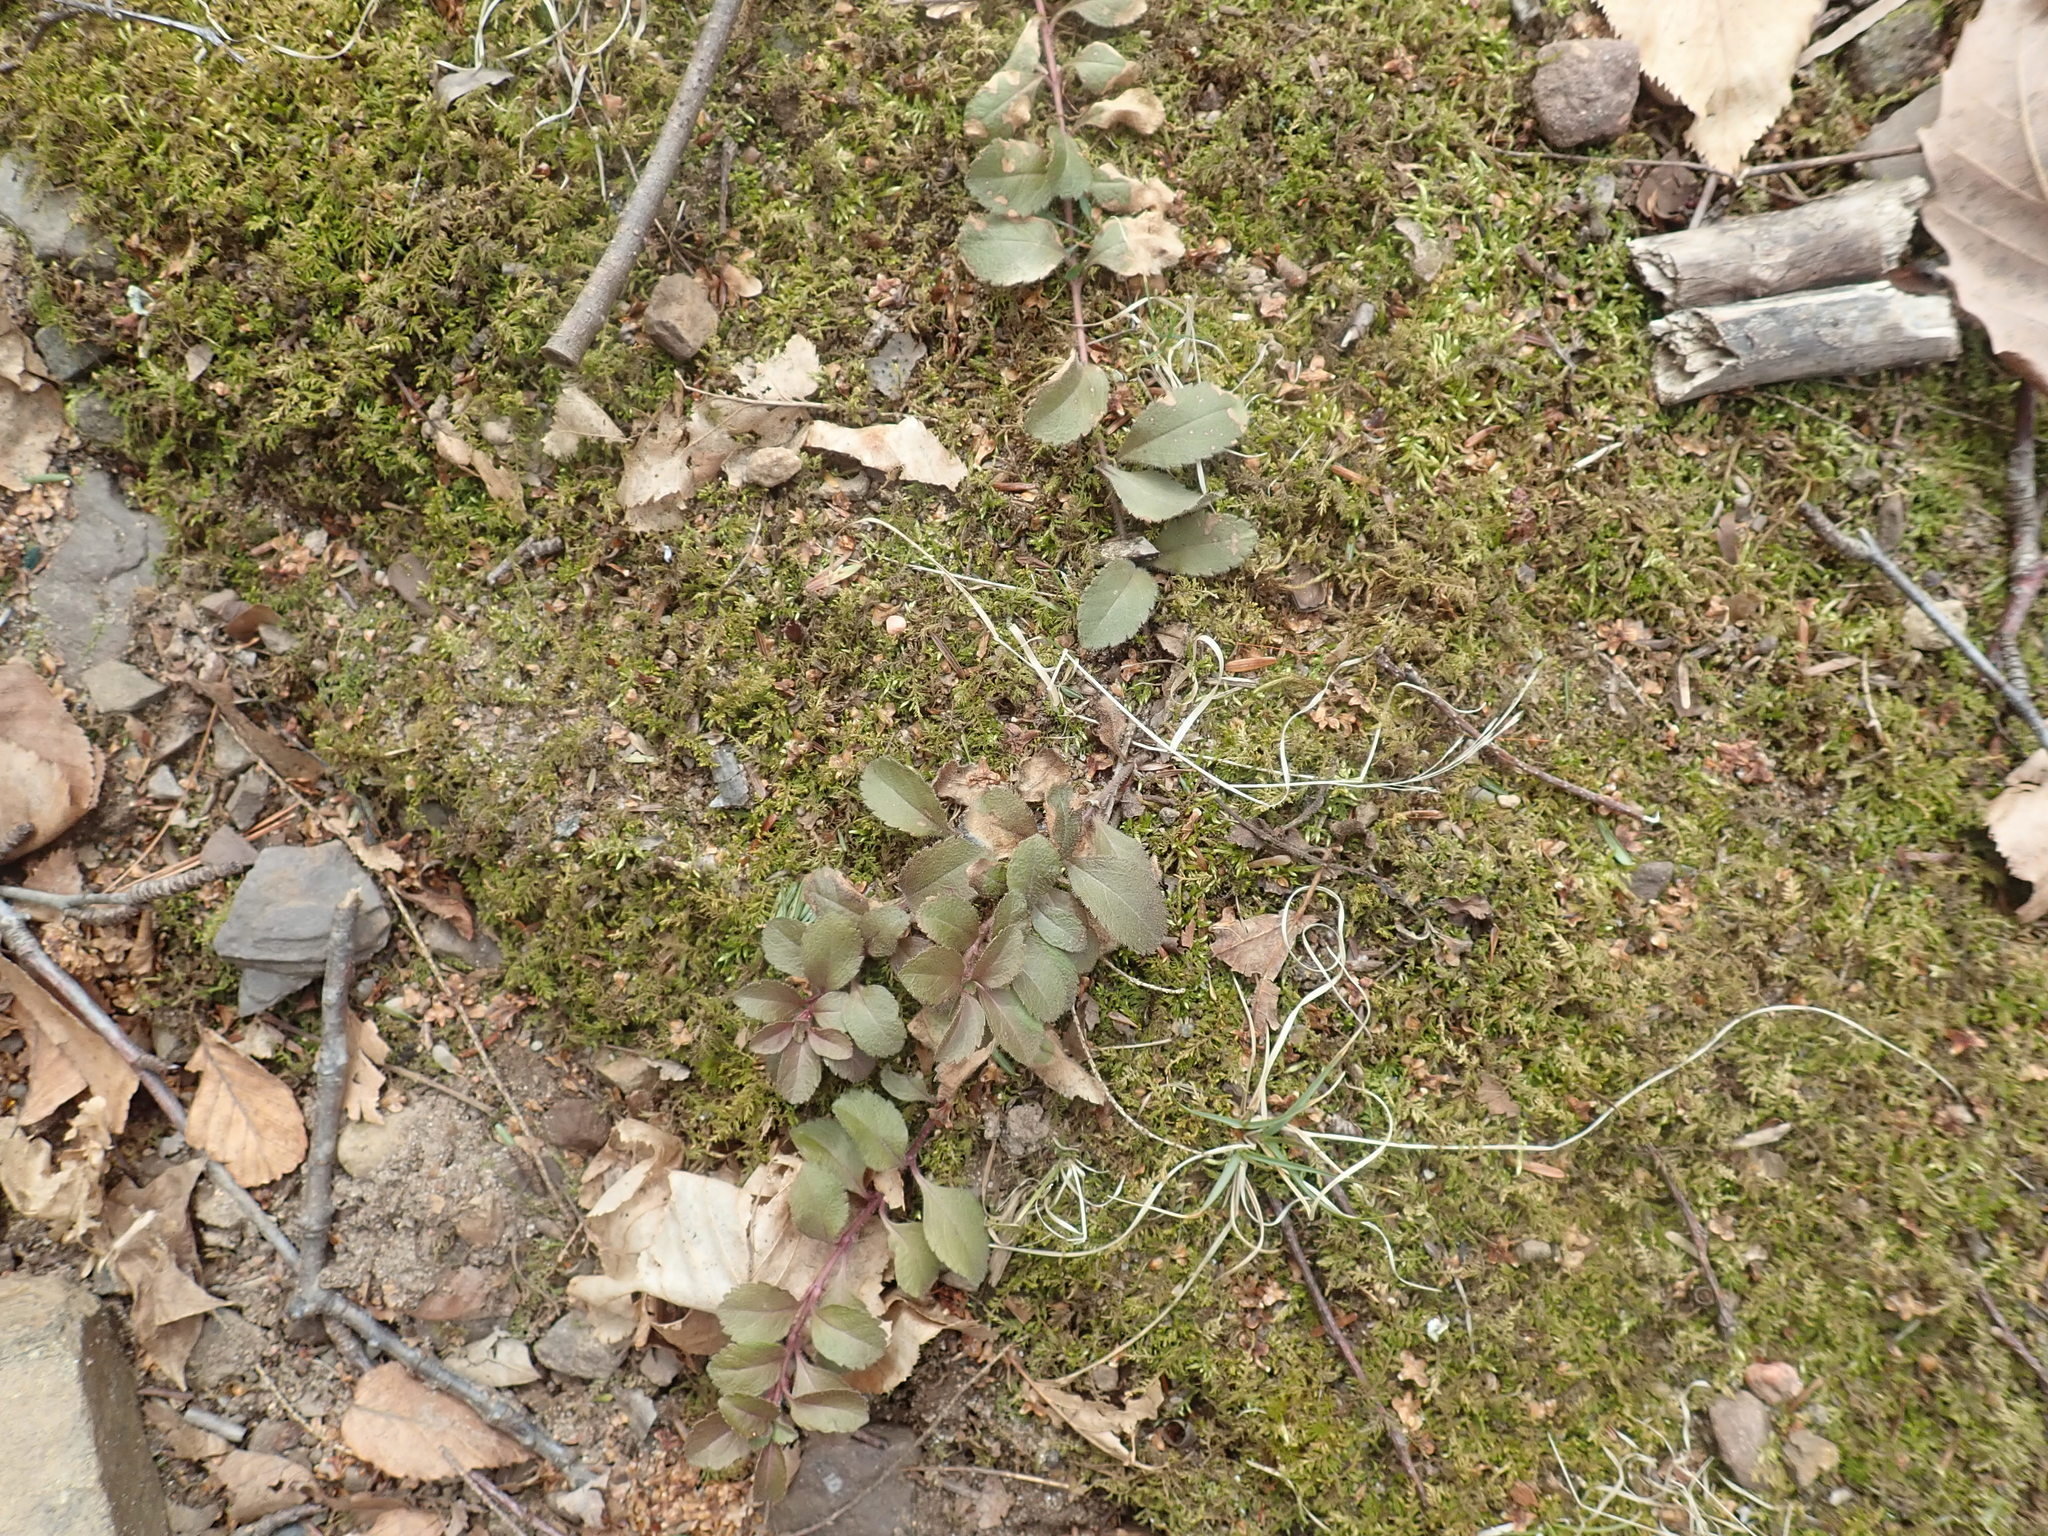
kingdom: Plantae
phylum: Tracheophyta
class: Magnoliopsida
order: Lamiales
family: Plantaginaceae
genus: Veronica
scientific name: Veronica officinalis
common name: Common speedwell
